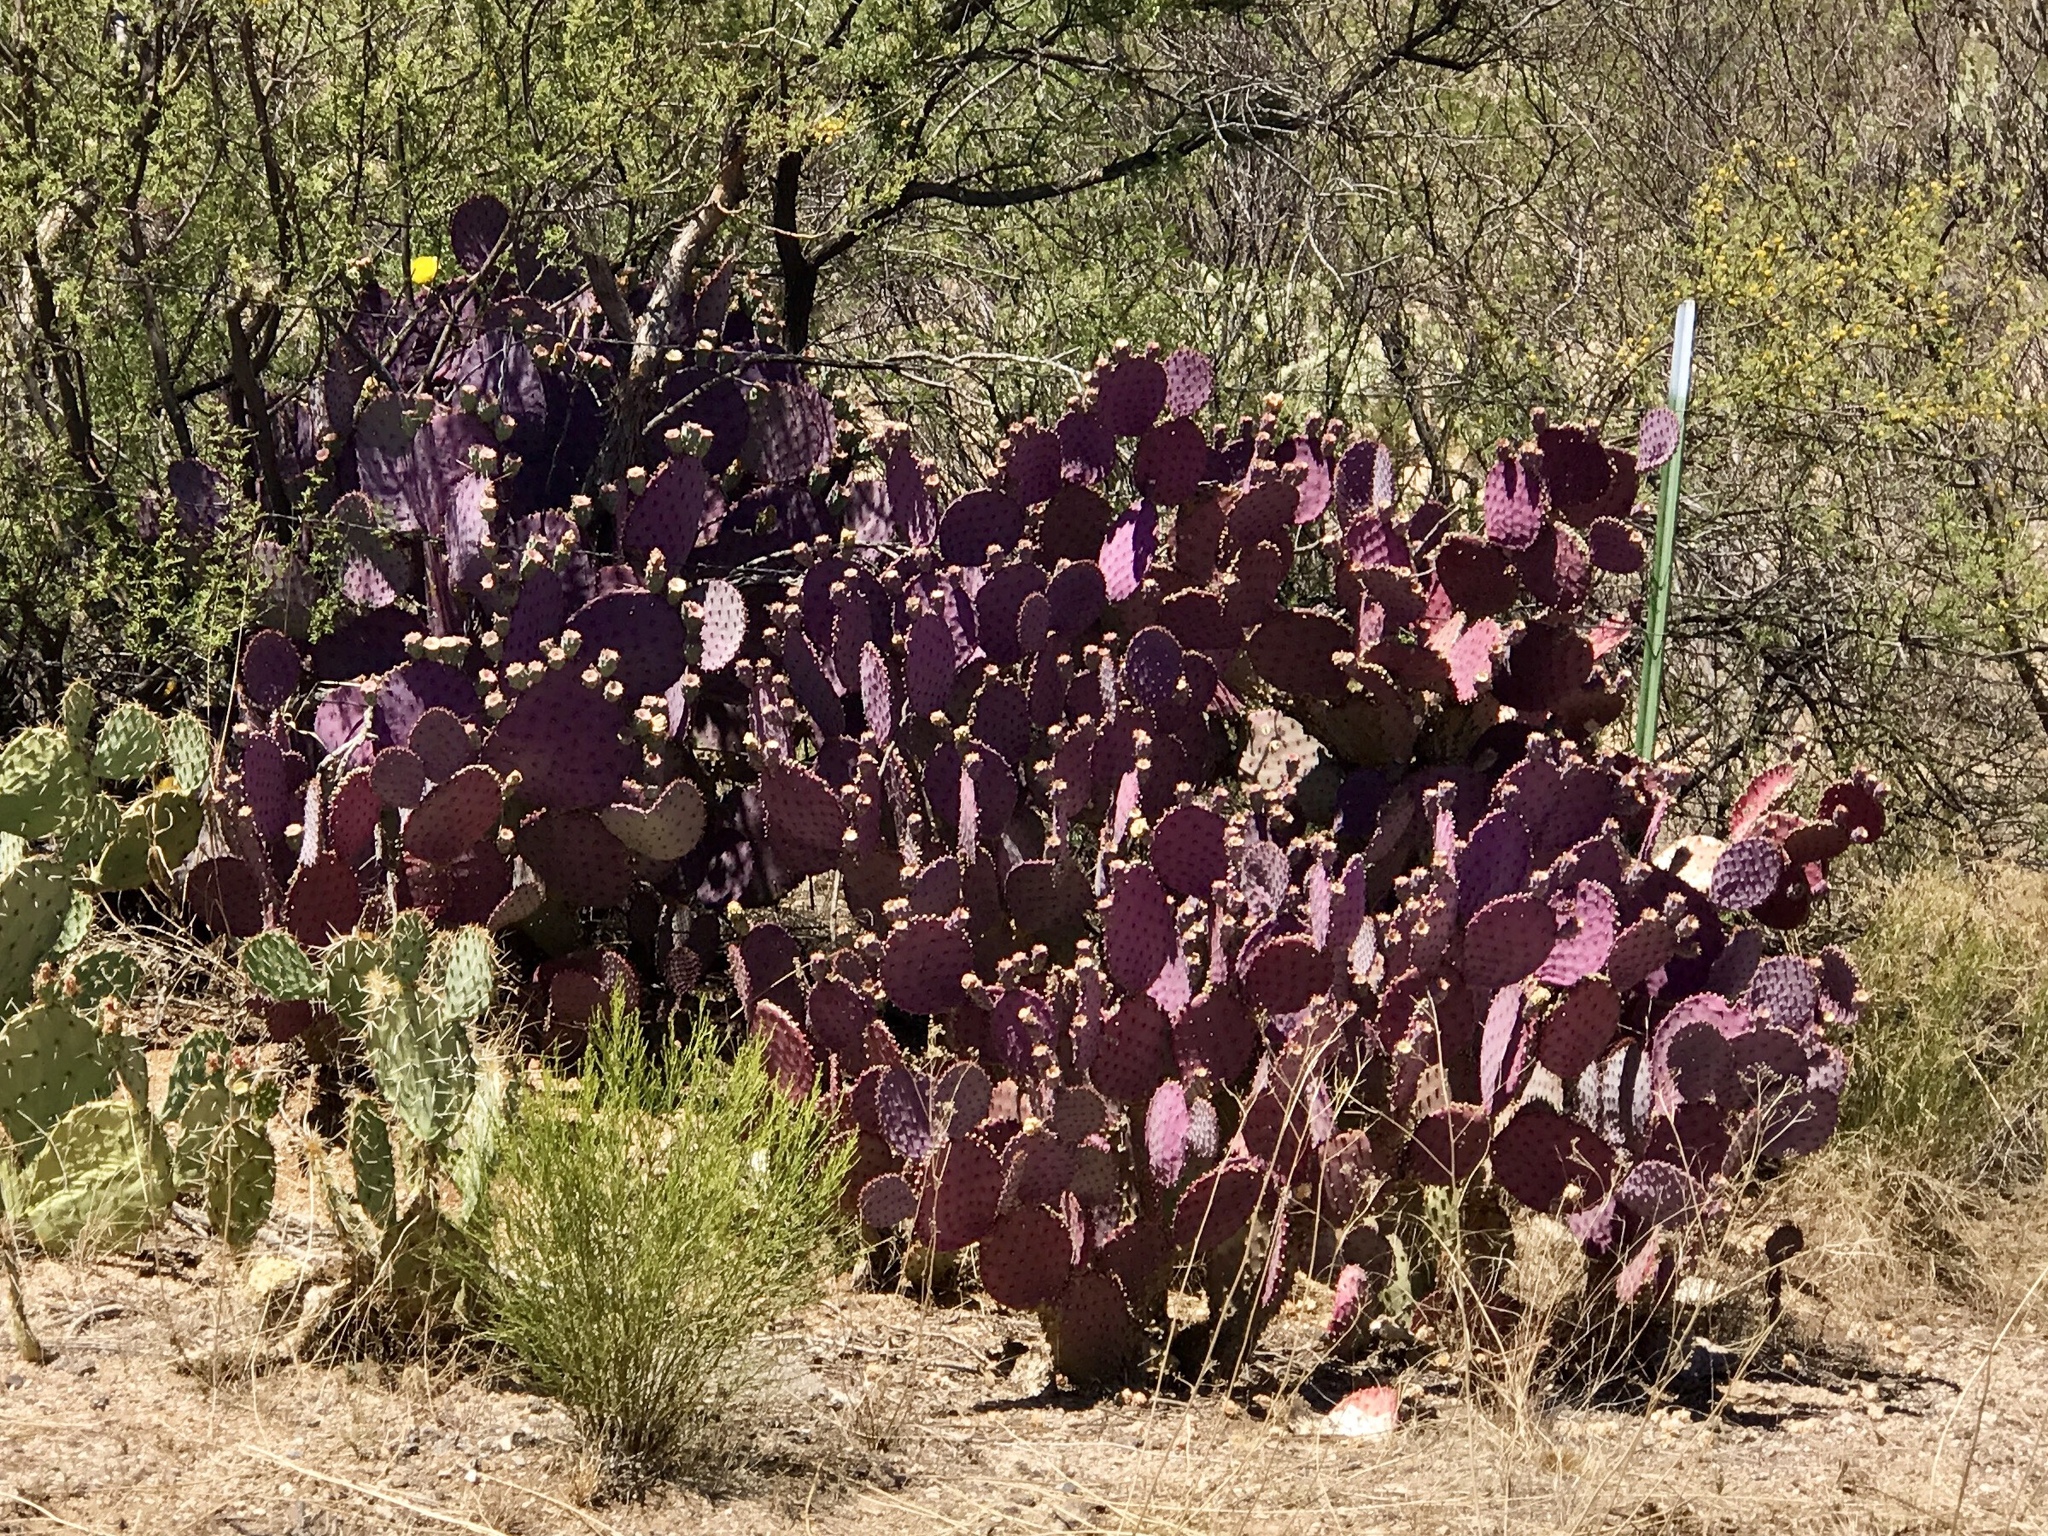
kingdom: Plantae
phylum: Tracheophyta
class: Magnoliopsida
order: Caryophyllales
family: Cactaceae
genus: Opuntia
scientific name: Opuntia gosseliniana
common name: Violet prickly-pear
